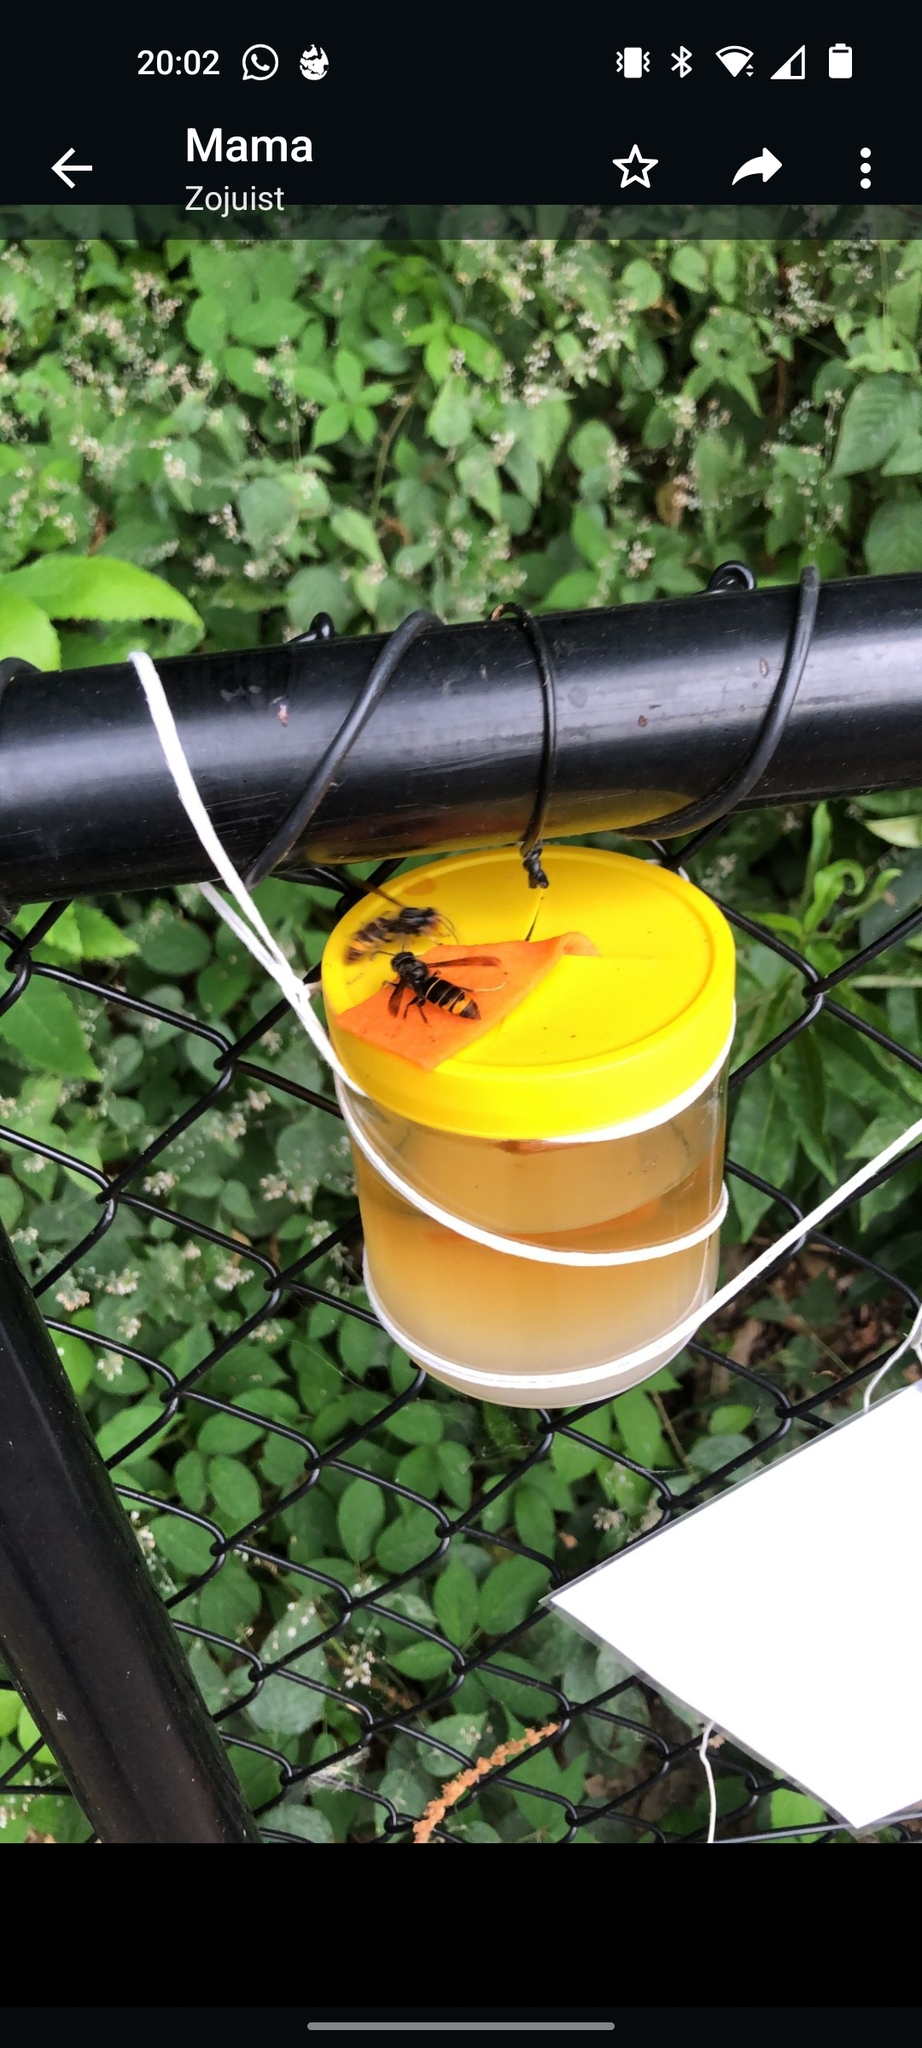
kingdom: Animalia
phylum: Arthropoda
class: Insecta
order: Hymenoptera
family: Vespidae
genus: Vespa
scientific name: Vespa velutina
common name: Asian hornet
